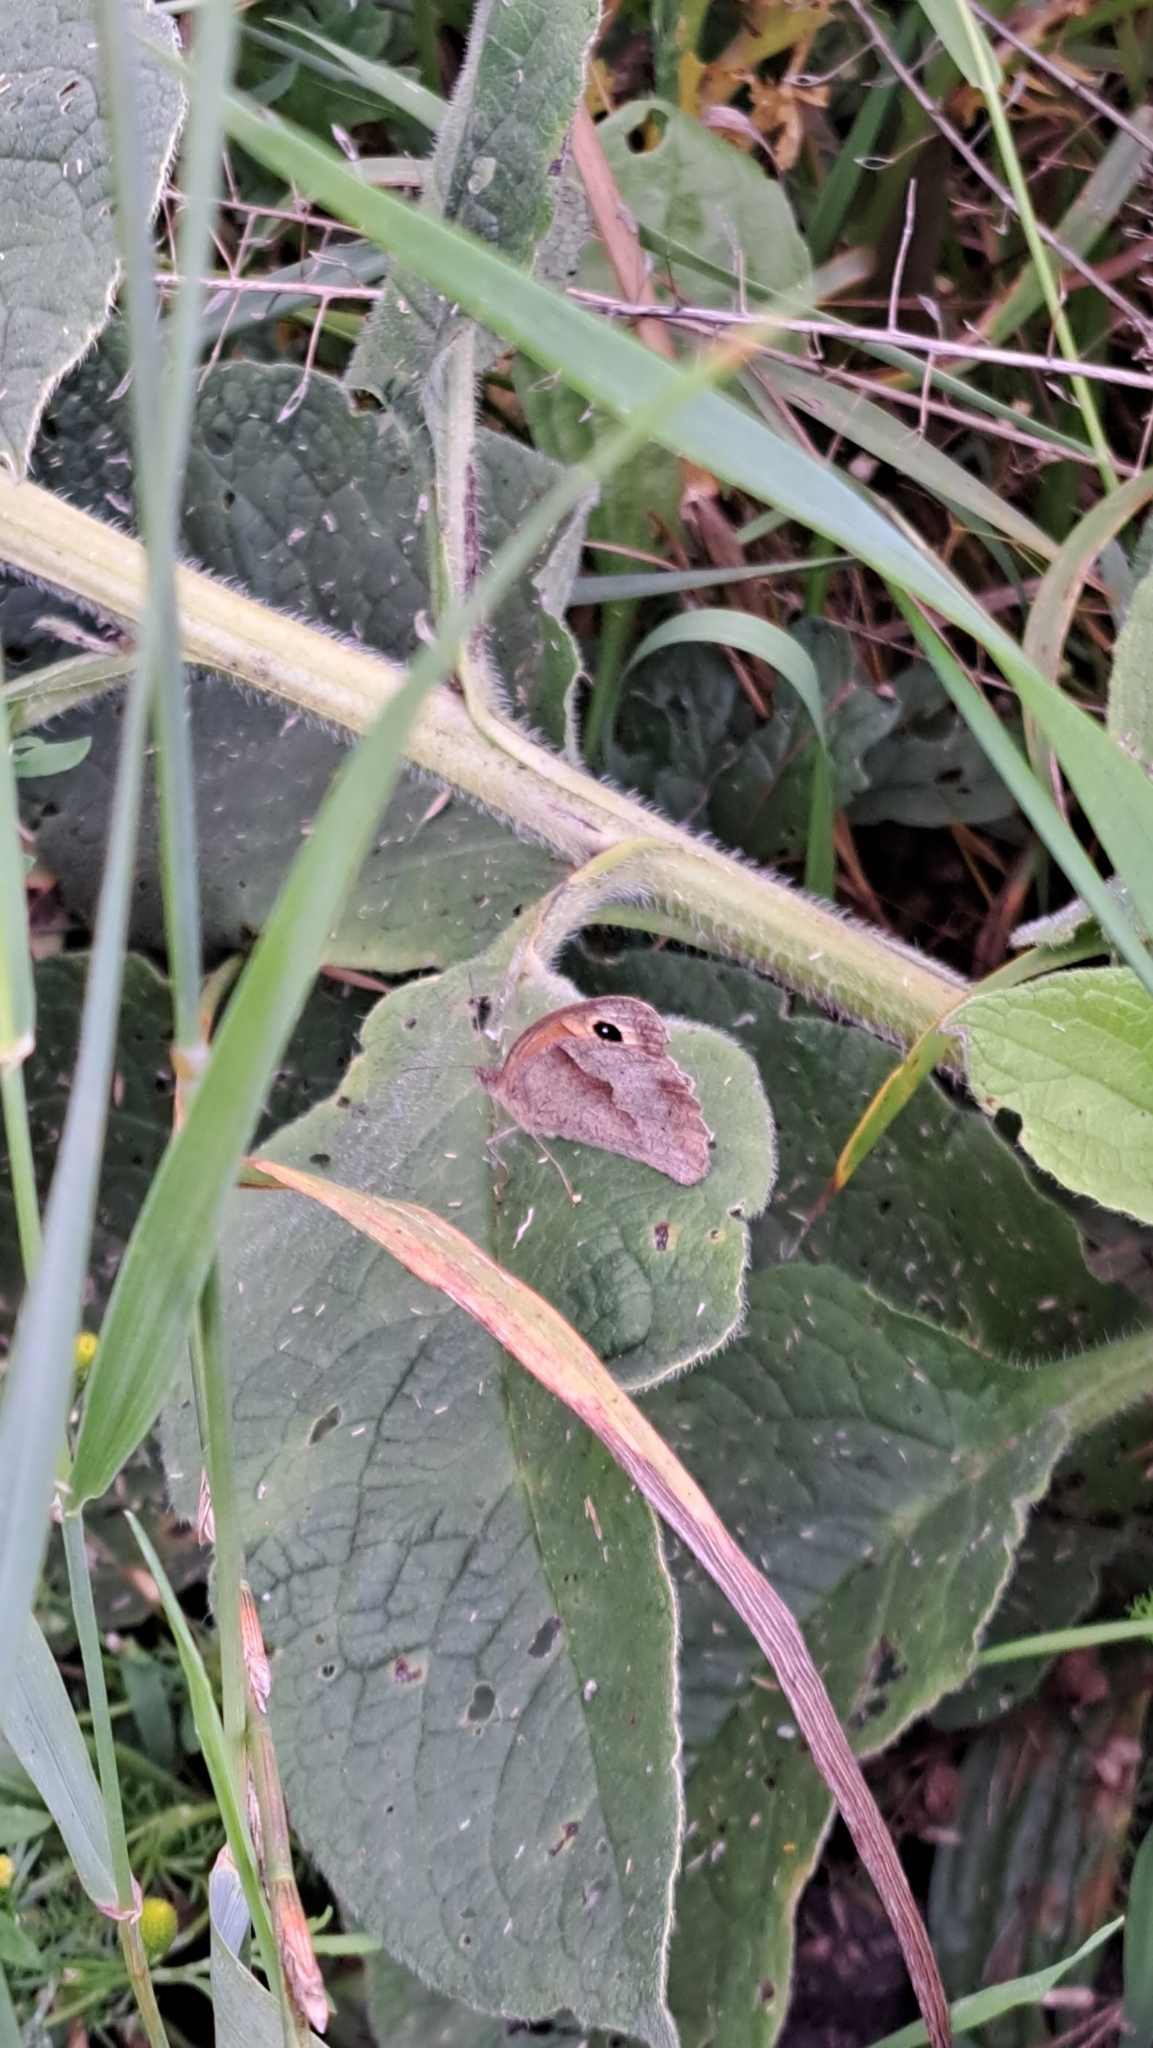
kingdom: Animalia
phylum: Arthropoda
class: Insecta
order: Lepidoptera
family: Nymphalidae
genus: Maniola
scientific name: Maniola jurtina
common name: Meadow brown
